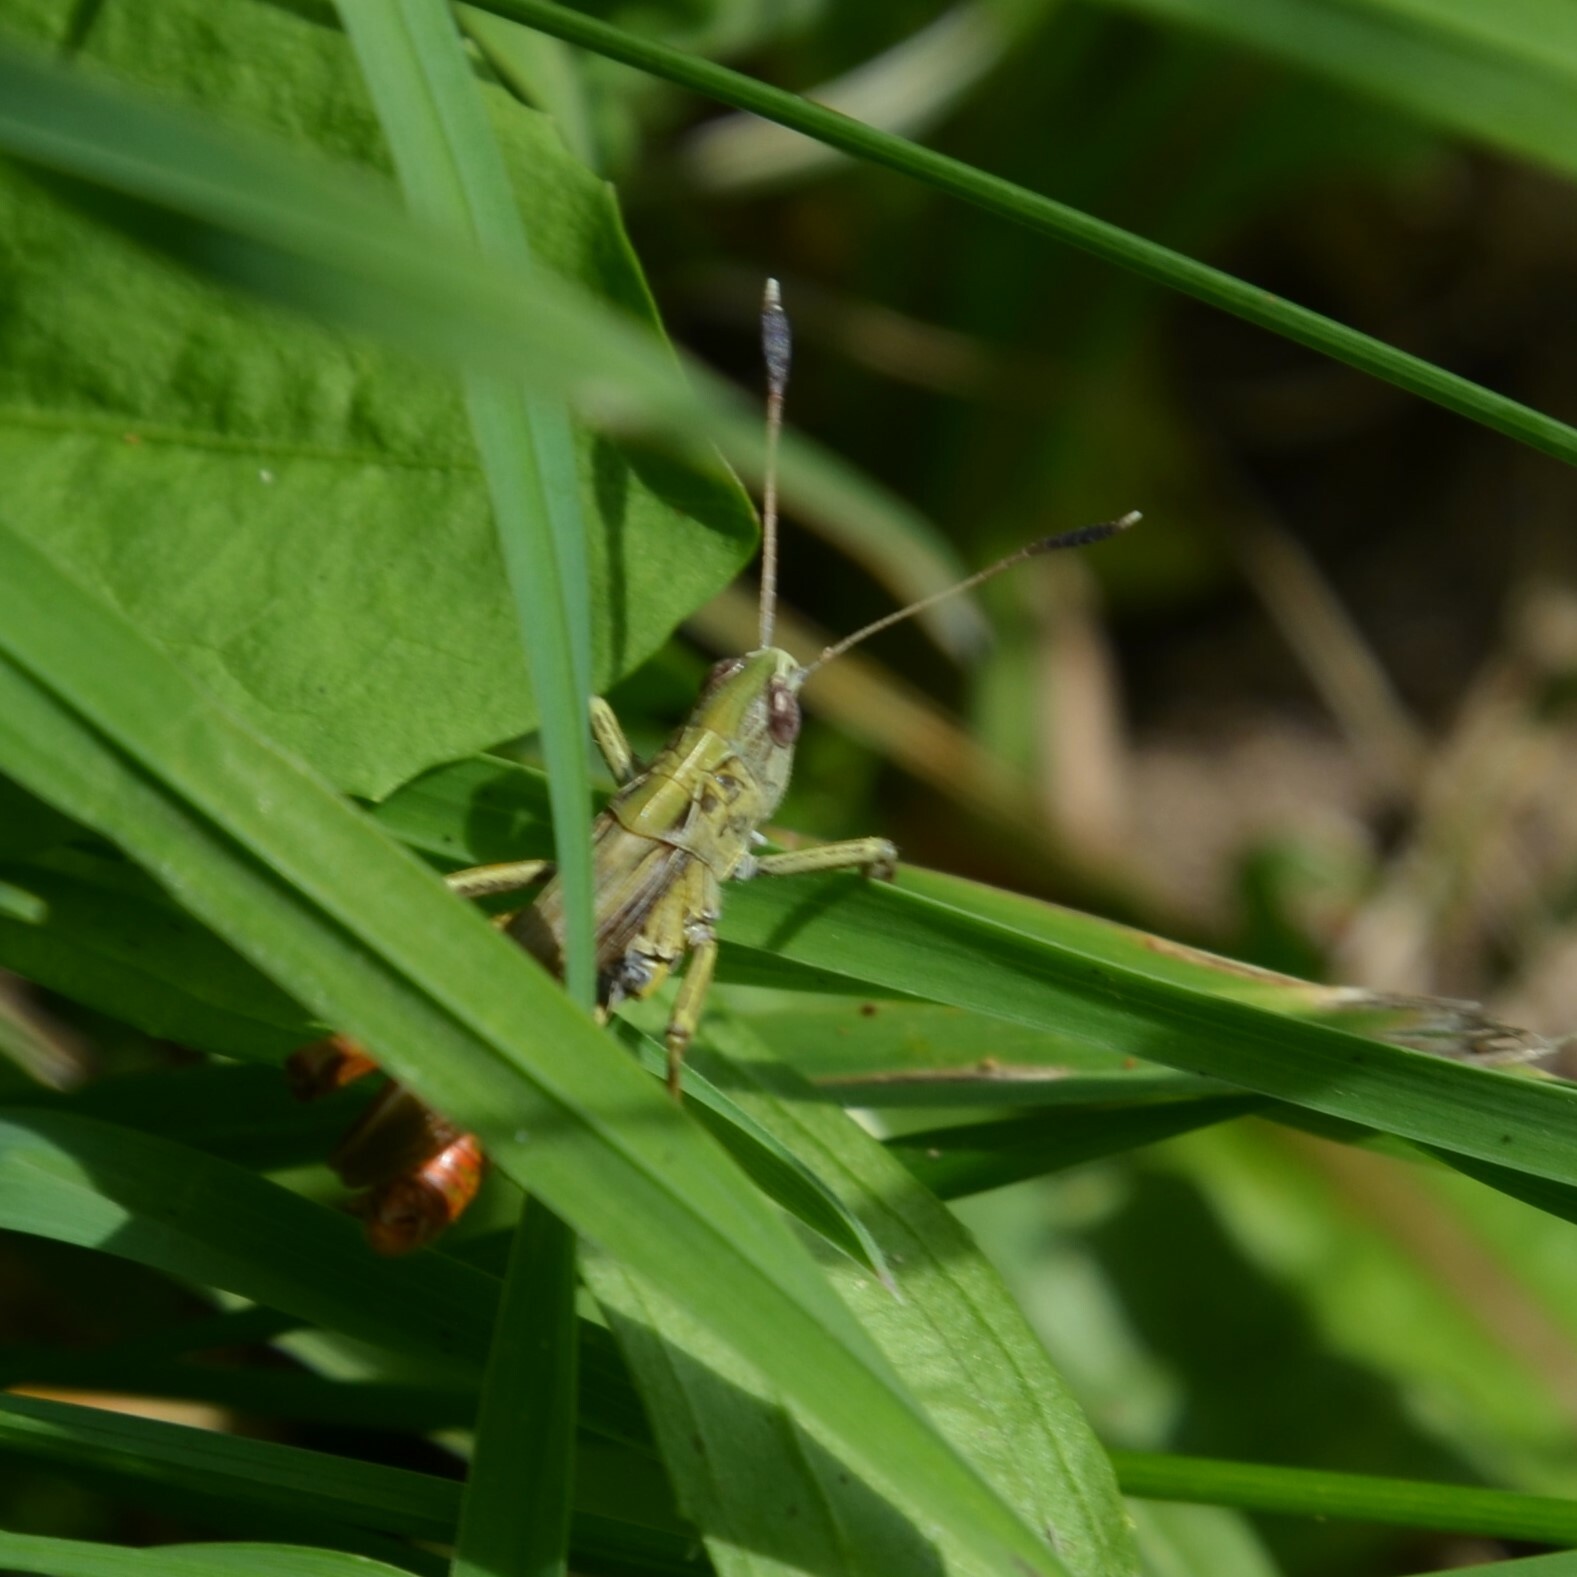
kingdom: Animalia
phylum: Arthropoda
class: Insecta
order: Orthoptera
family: Acrididae
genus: Gomphocerippus
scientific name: Gomphocerippus rufus
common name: Rufous grasshopper
